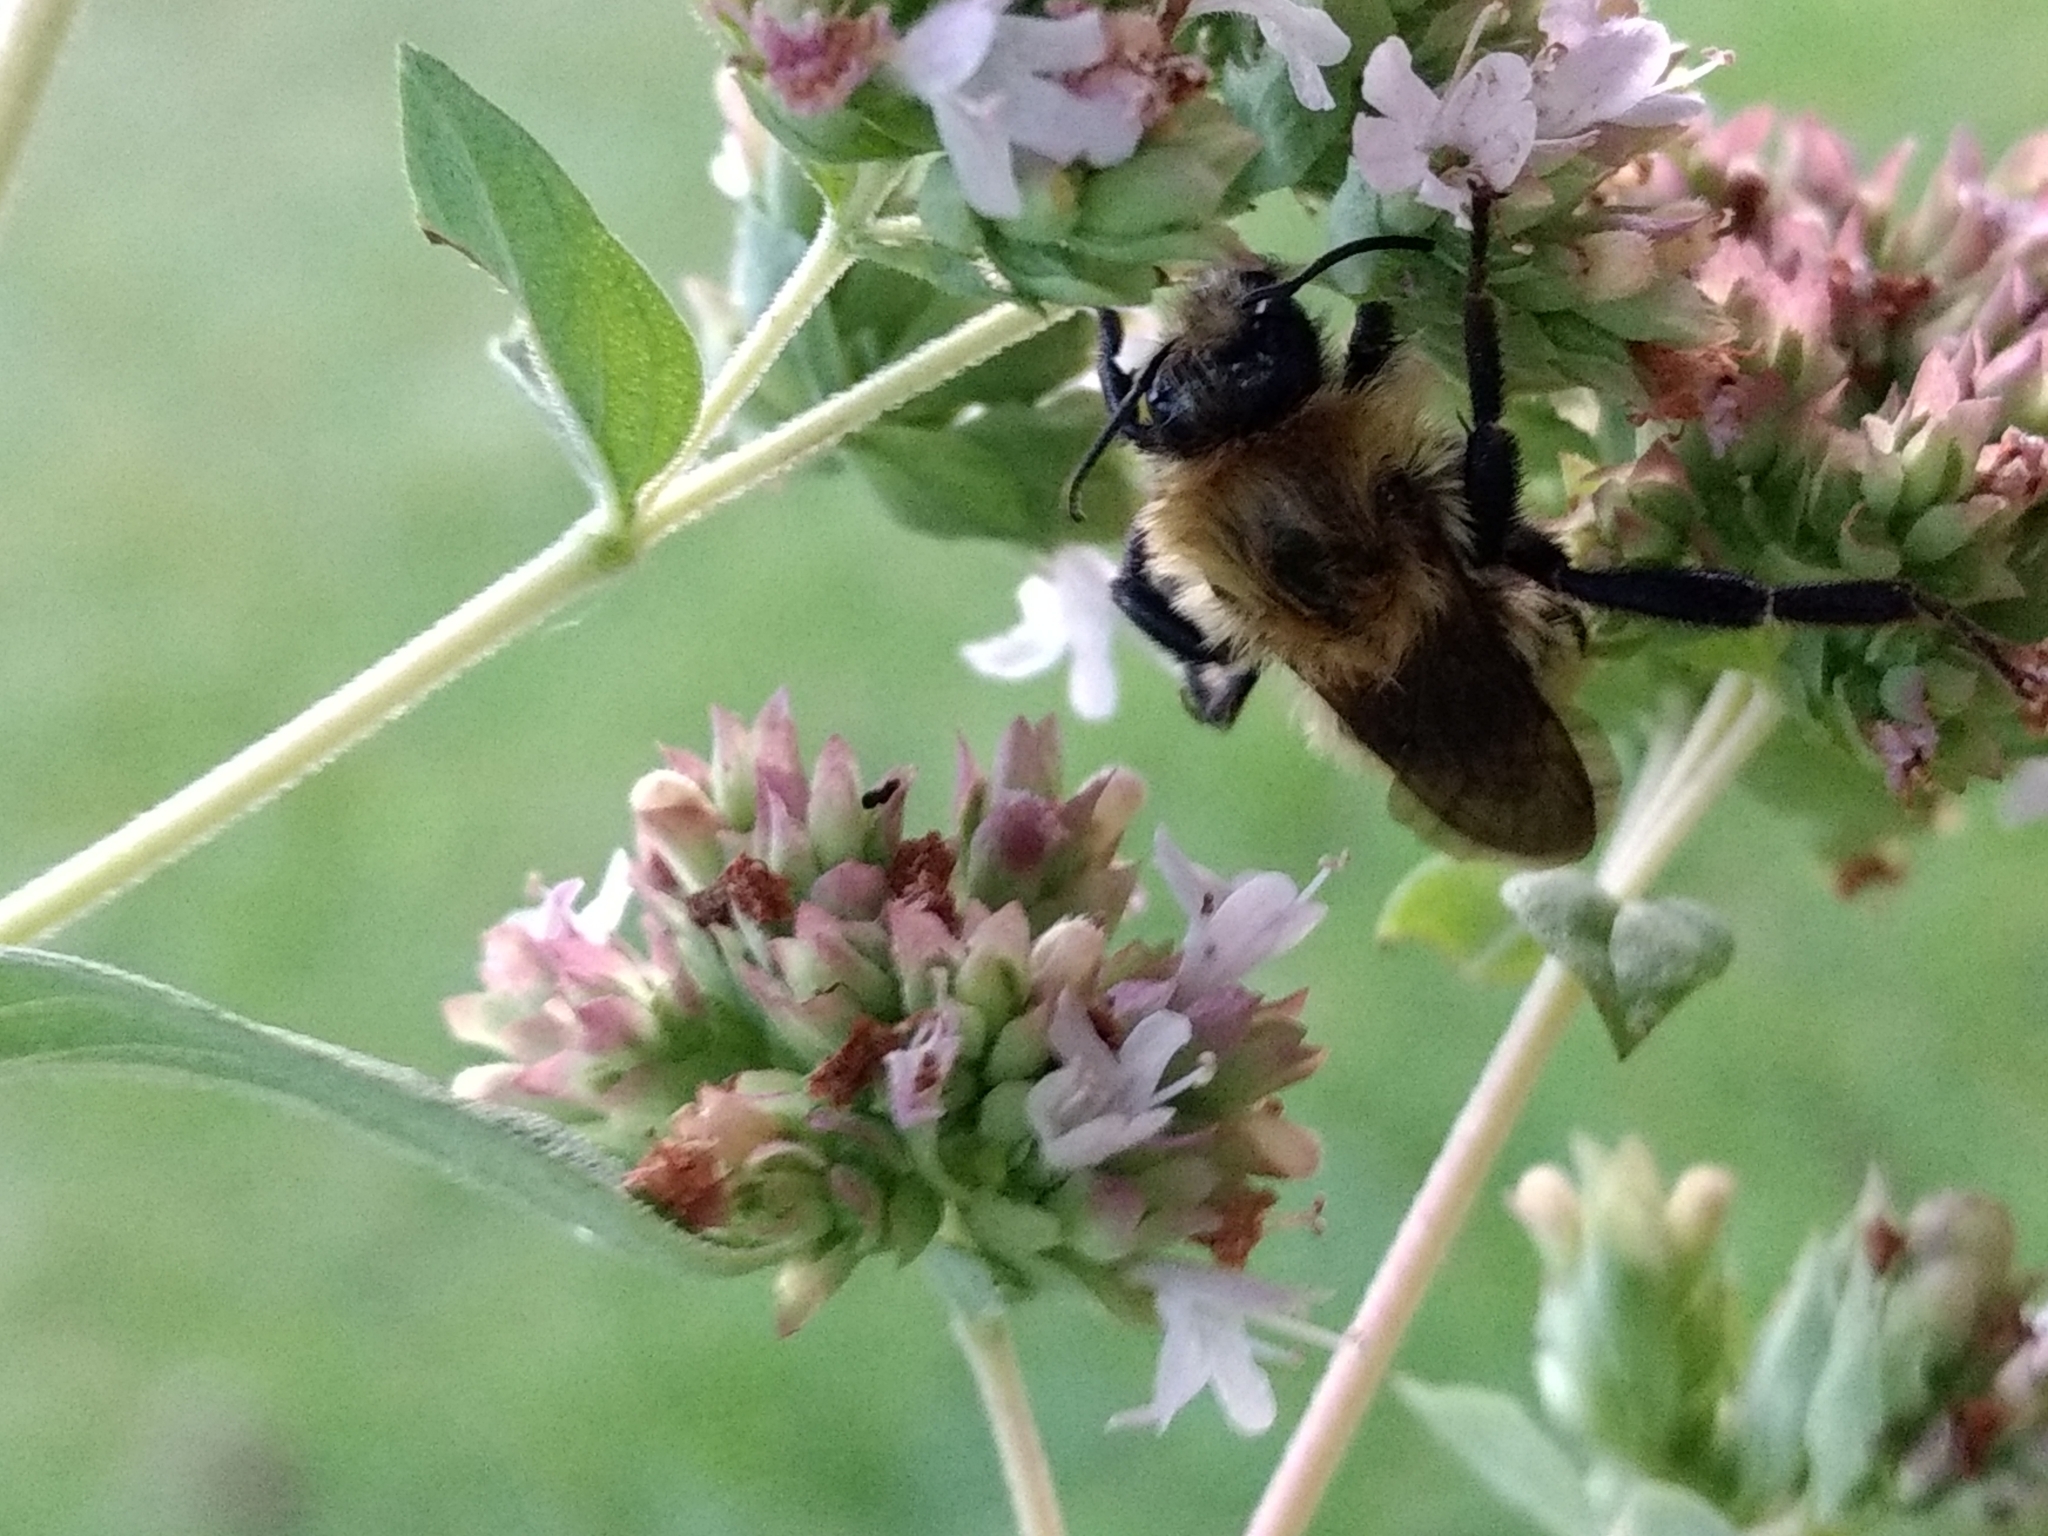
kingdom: Animalia
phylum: Arthropoda
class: Insecta
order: Hymenoptera
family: Apidae
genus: Bombus
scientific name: Bombus
